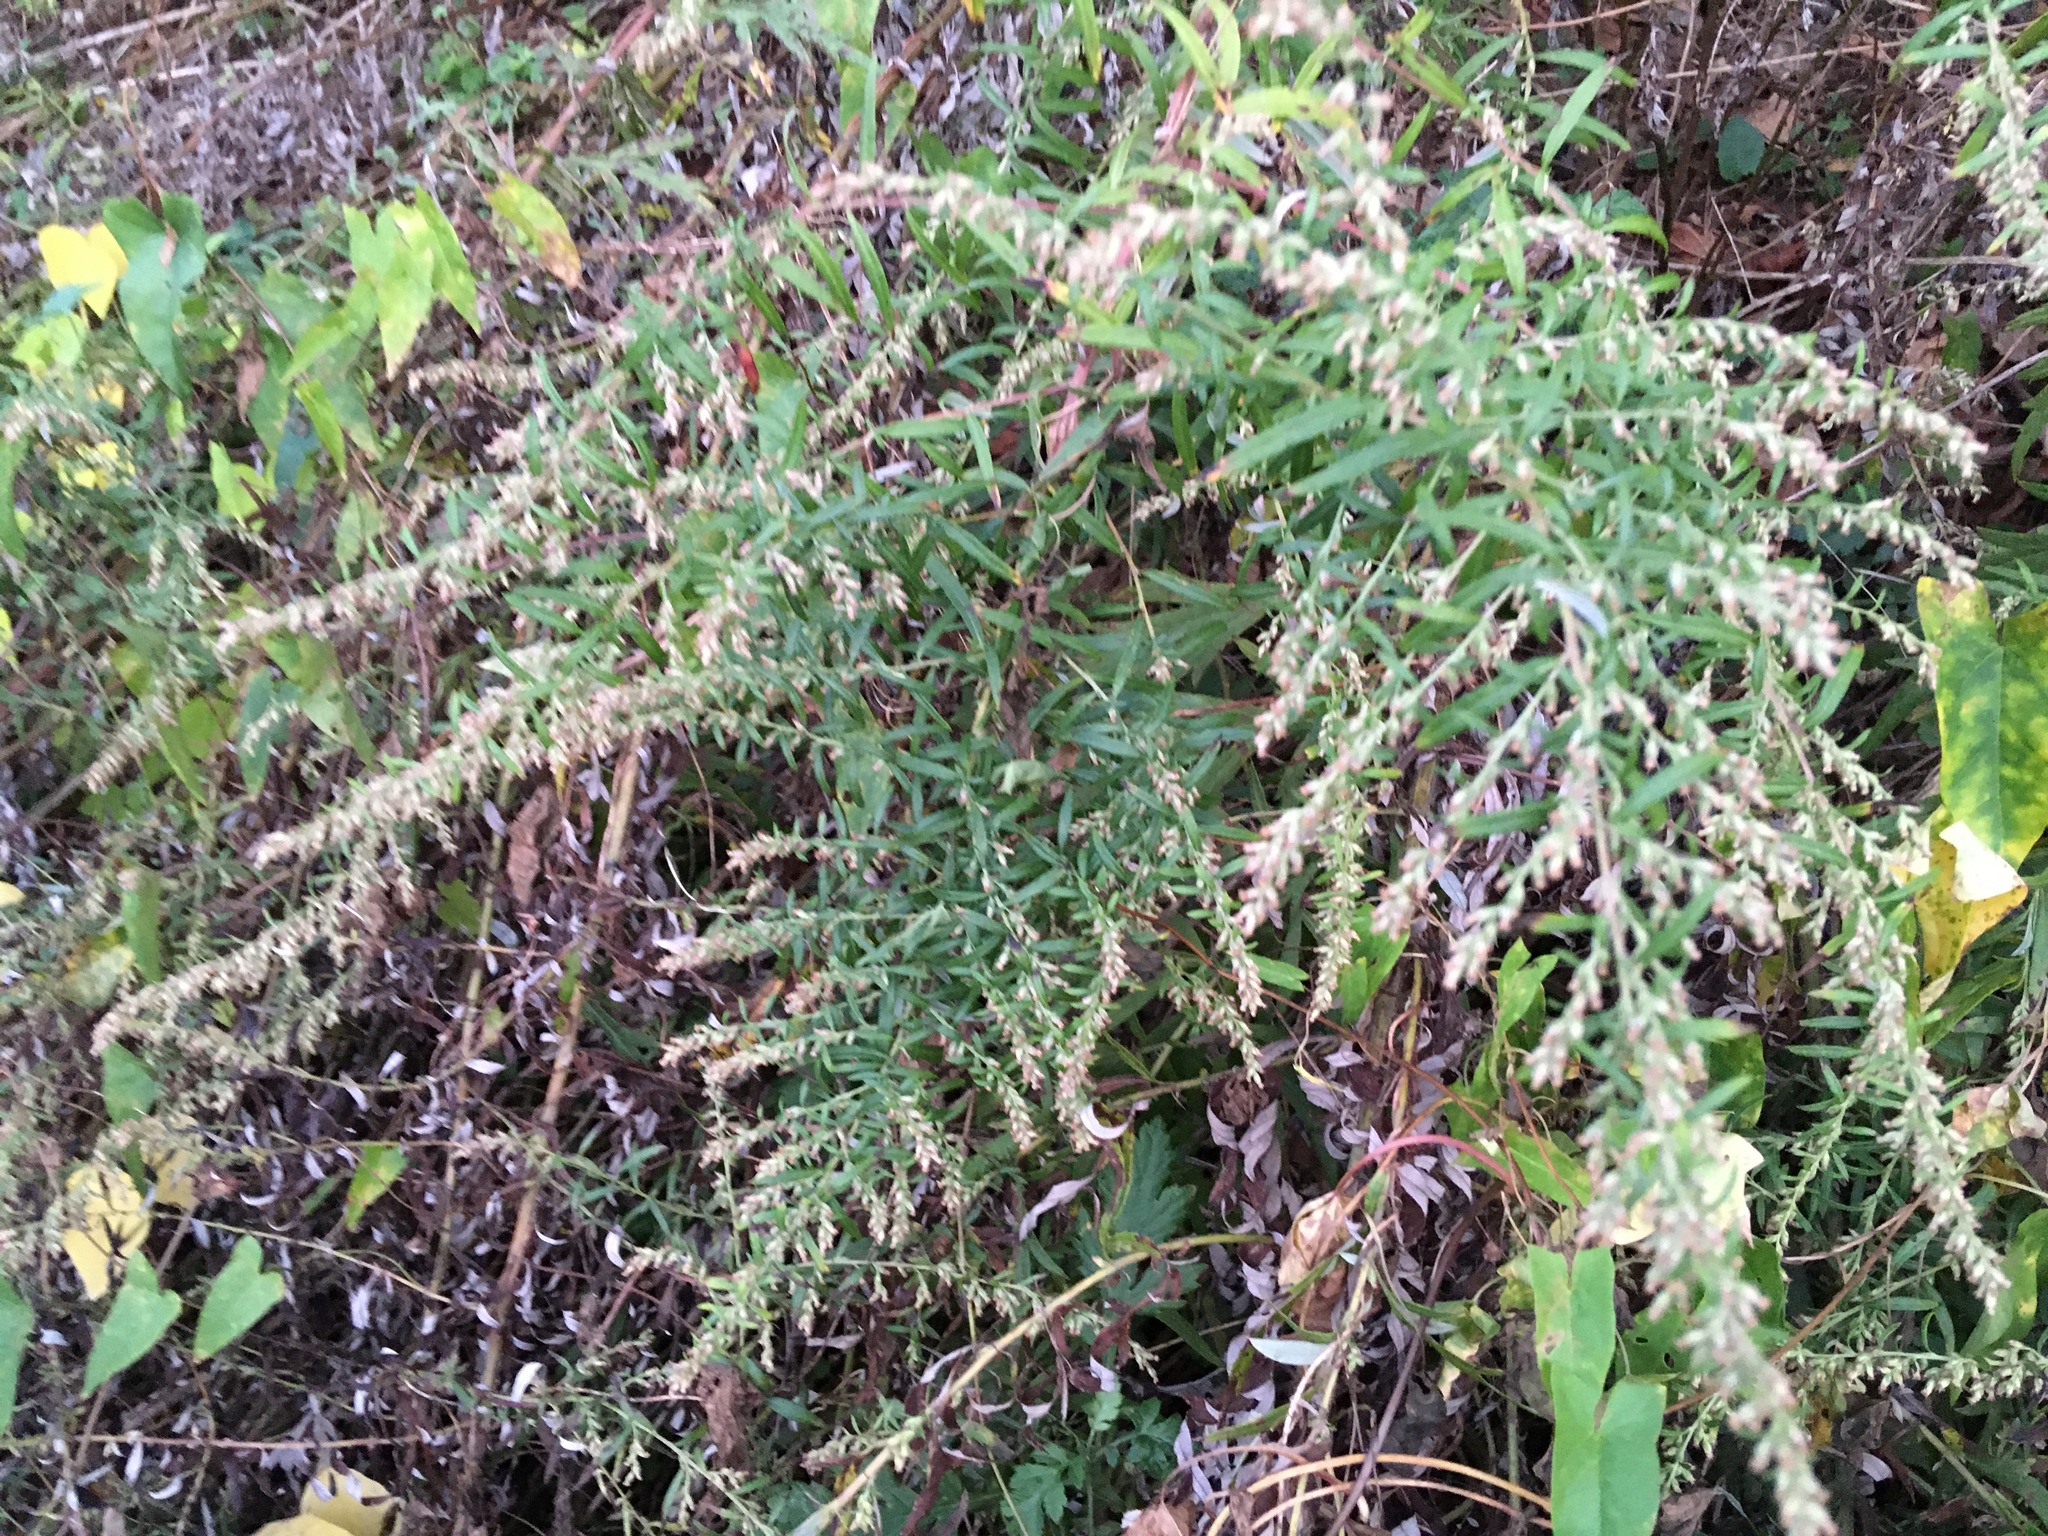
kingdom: Plantae
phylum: Tracheophyta
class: Magnoliopsida
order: Asterales
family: Asteraceae
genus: Artemisia
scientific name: Artemisia vulgaris
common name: Mugwort
